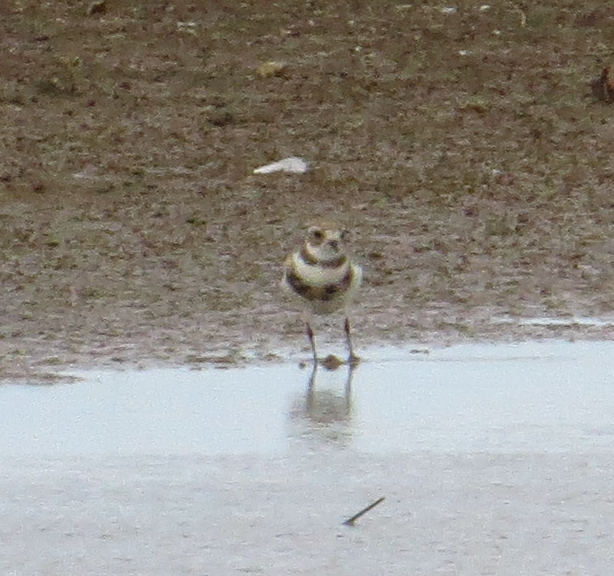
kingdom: Animalia
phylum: Chordata
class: Aves
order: Charadriiformes
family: Charadriidae
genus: Anarhynchus
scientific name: Anarhynchus
